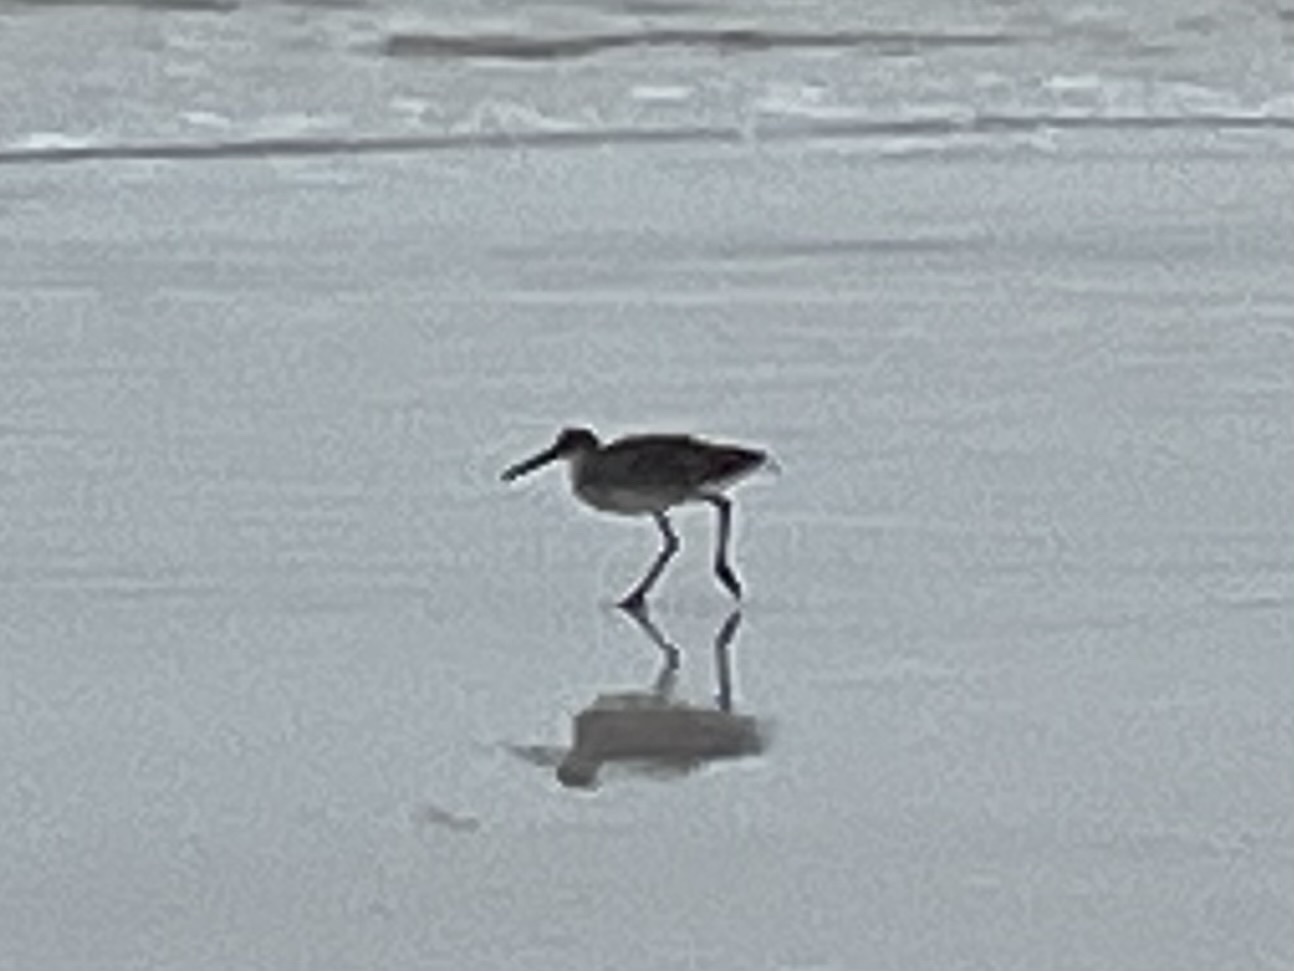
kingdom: Animalia
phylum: Chordata
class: Aves
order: Charadriiformes
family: Scolopacidae
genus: Tringa
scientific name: Tringa semipalmata
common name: Willet
